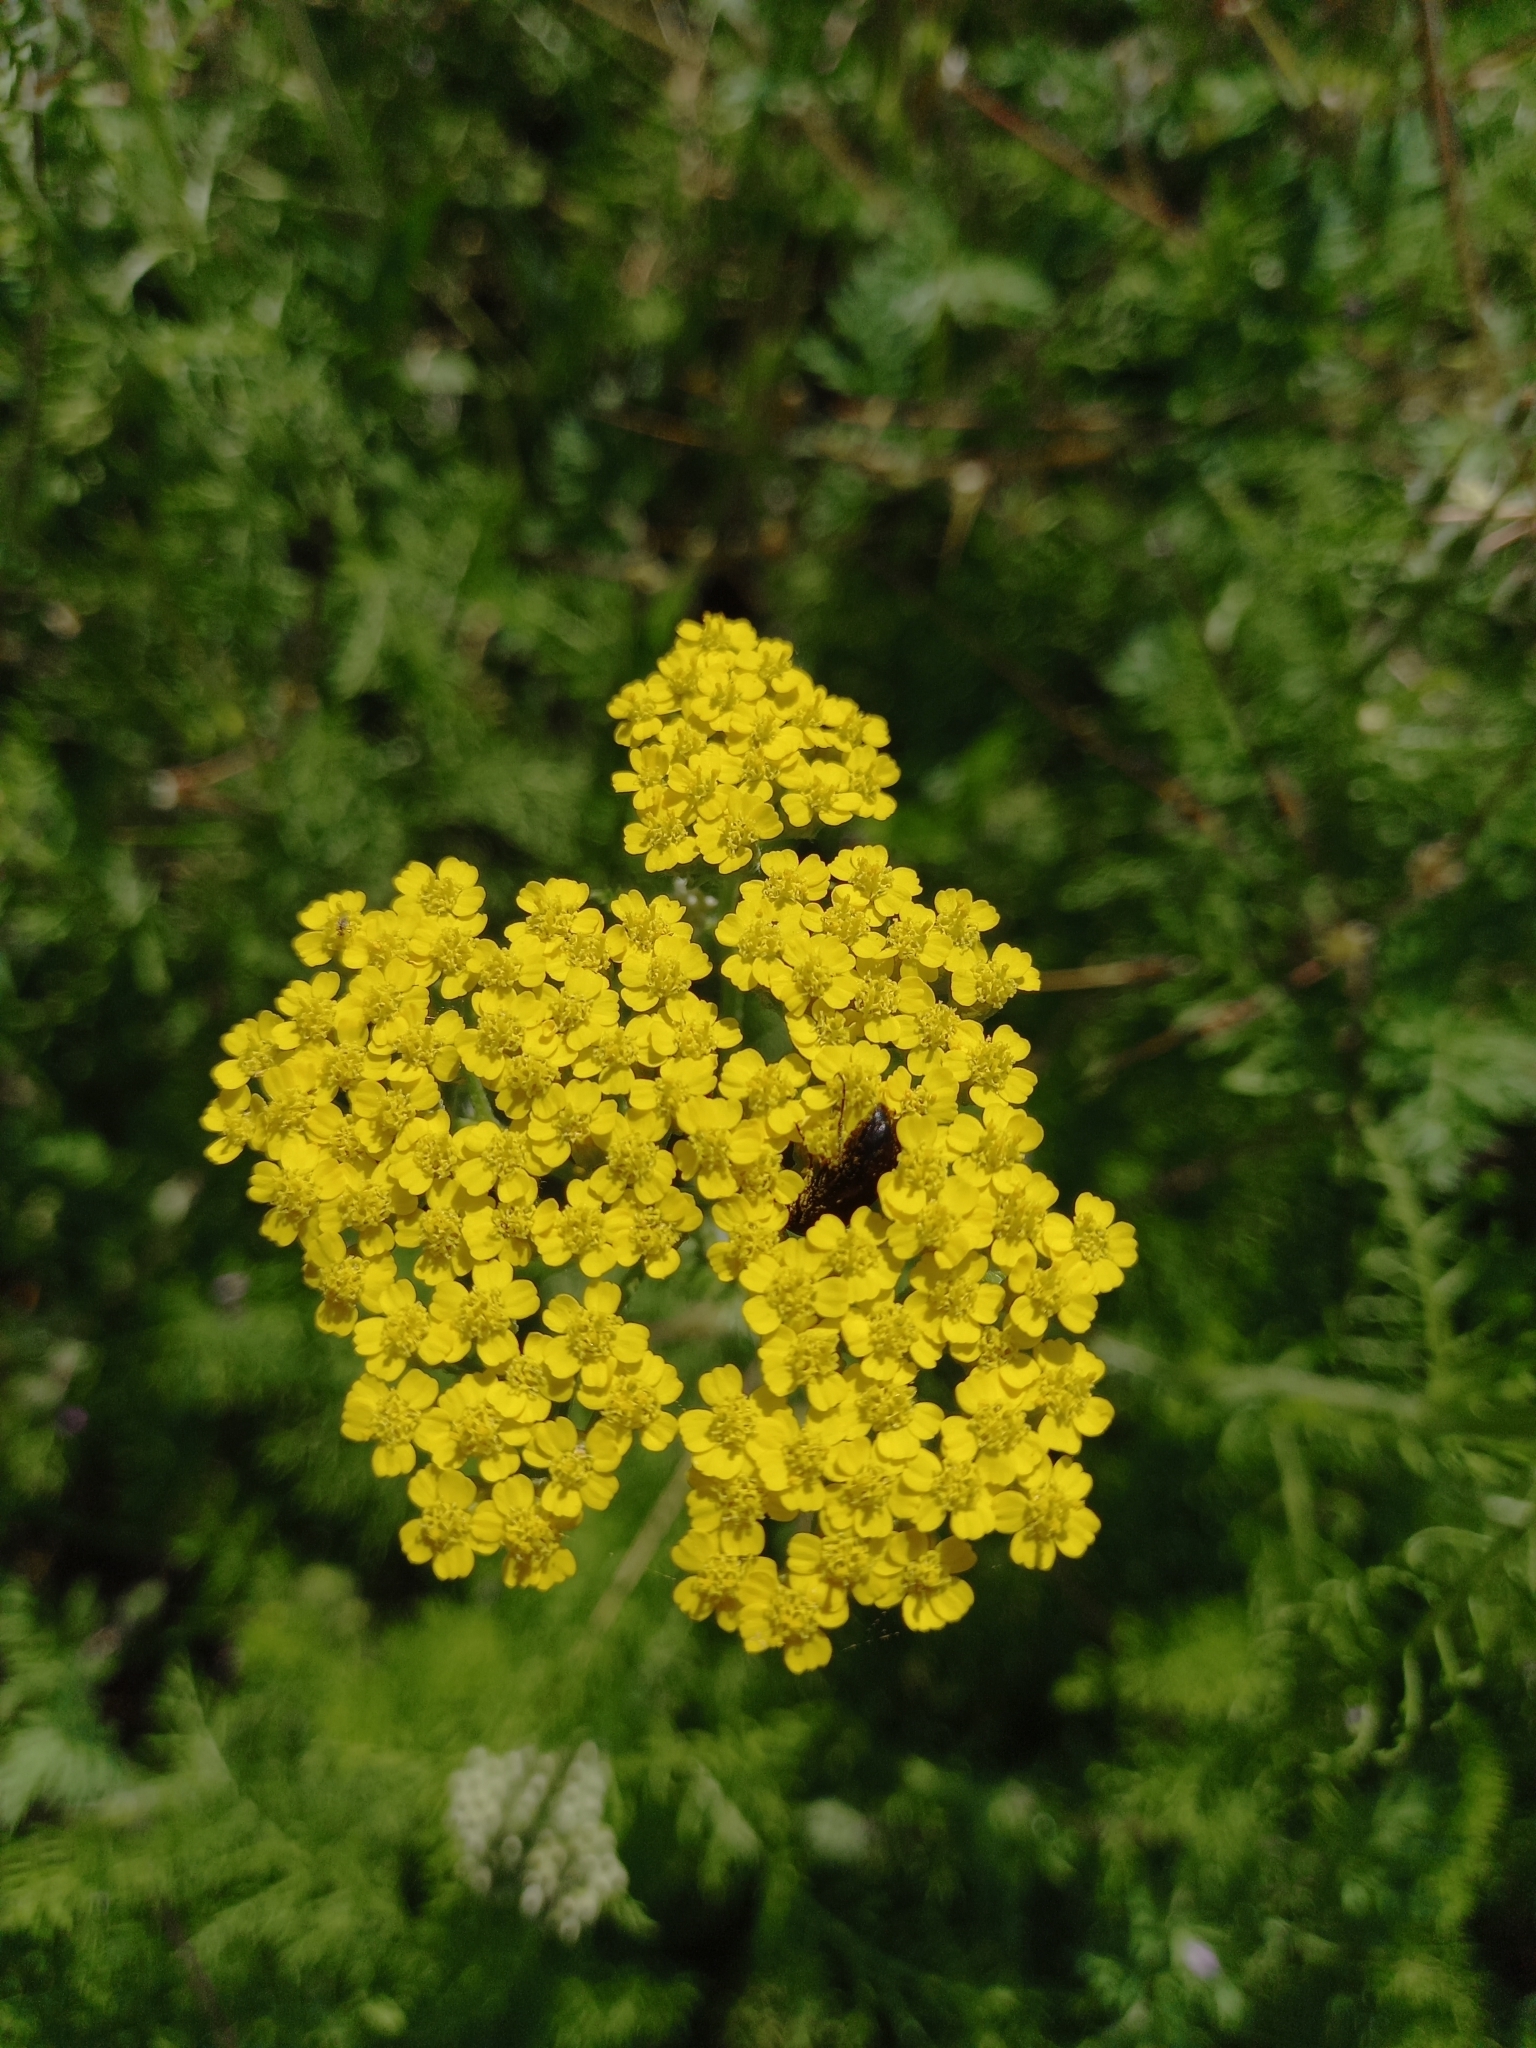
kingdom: Plantae
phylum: Tracheophyta
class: Magnoliopsida
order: Asterales
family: Asteraceae
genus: Achillea
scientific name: Achillea arabica
